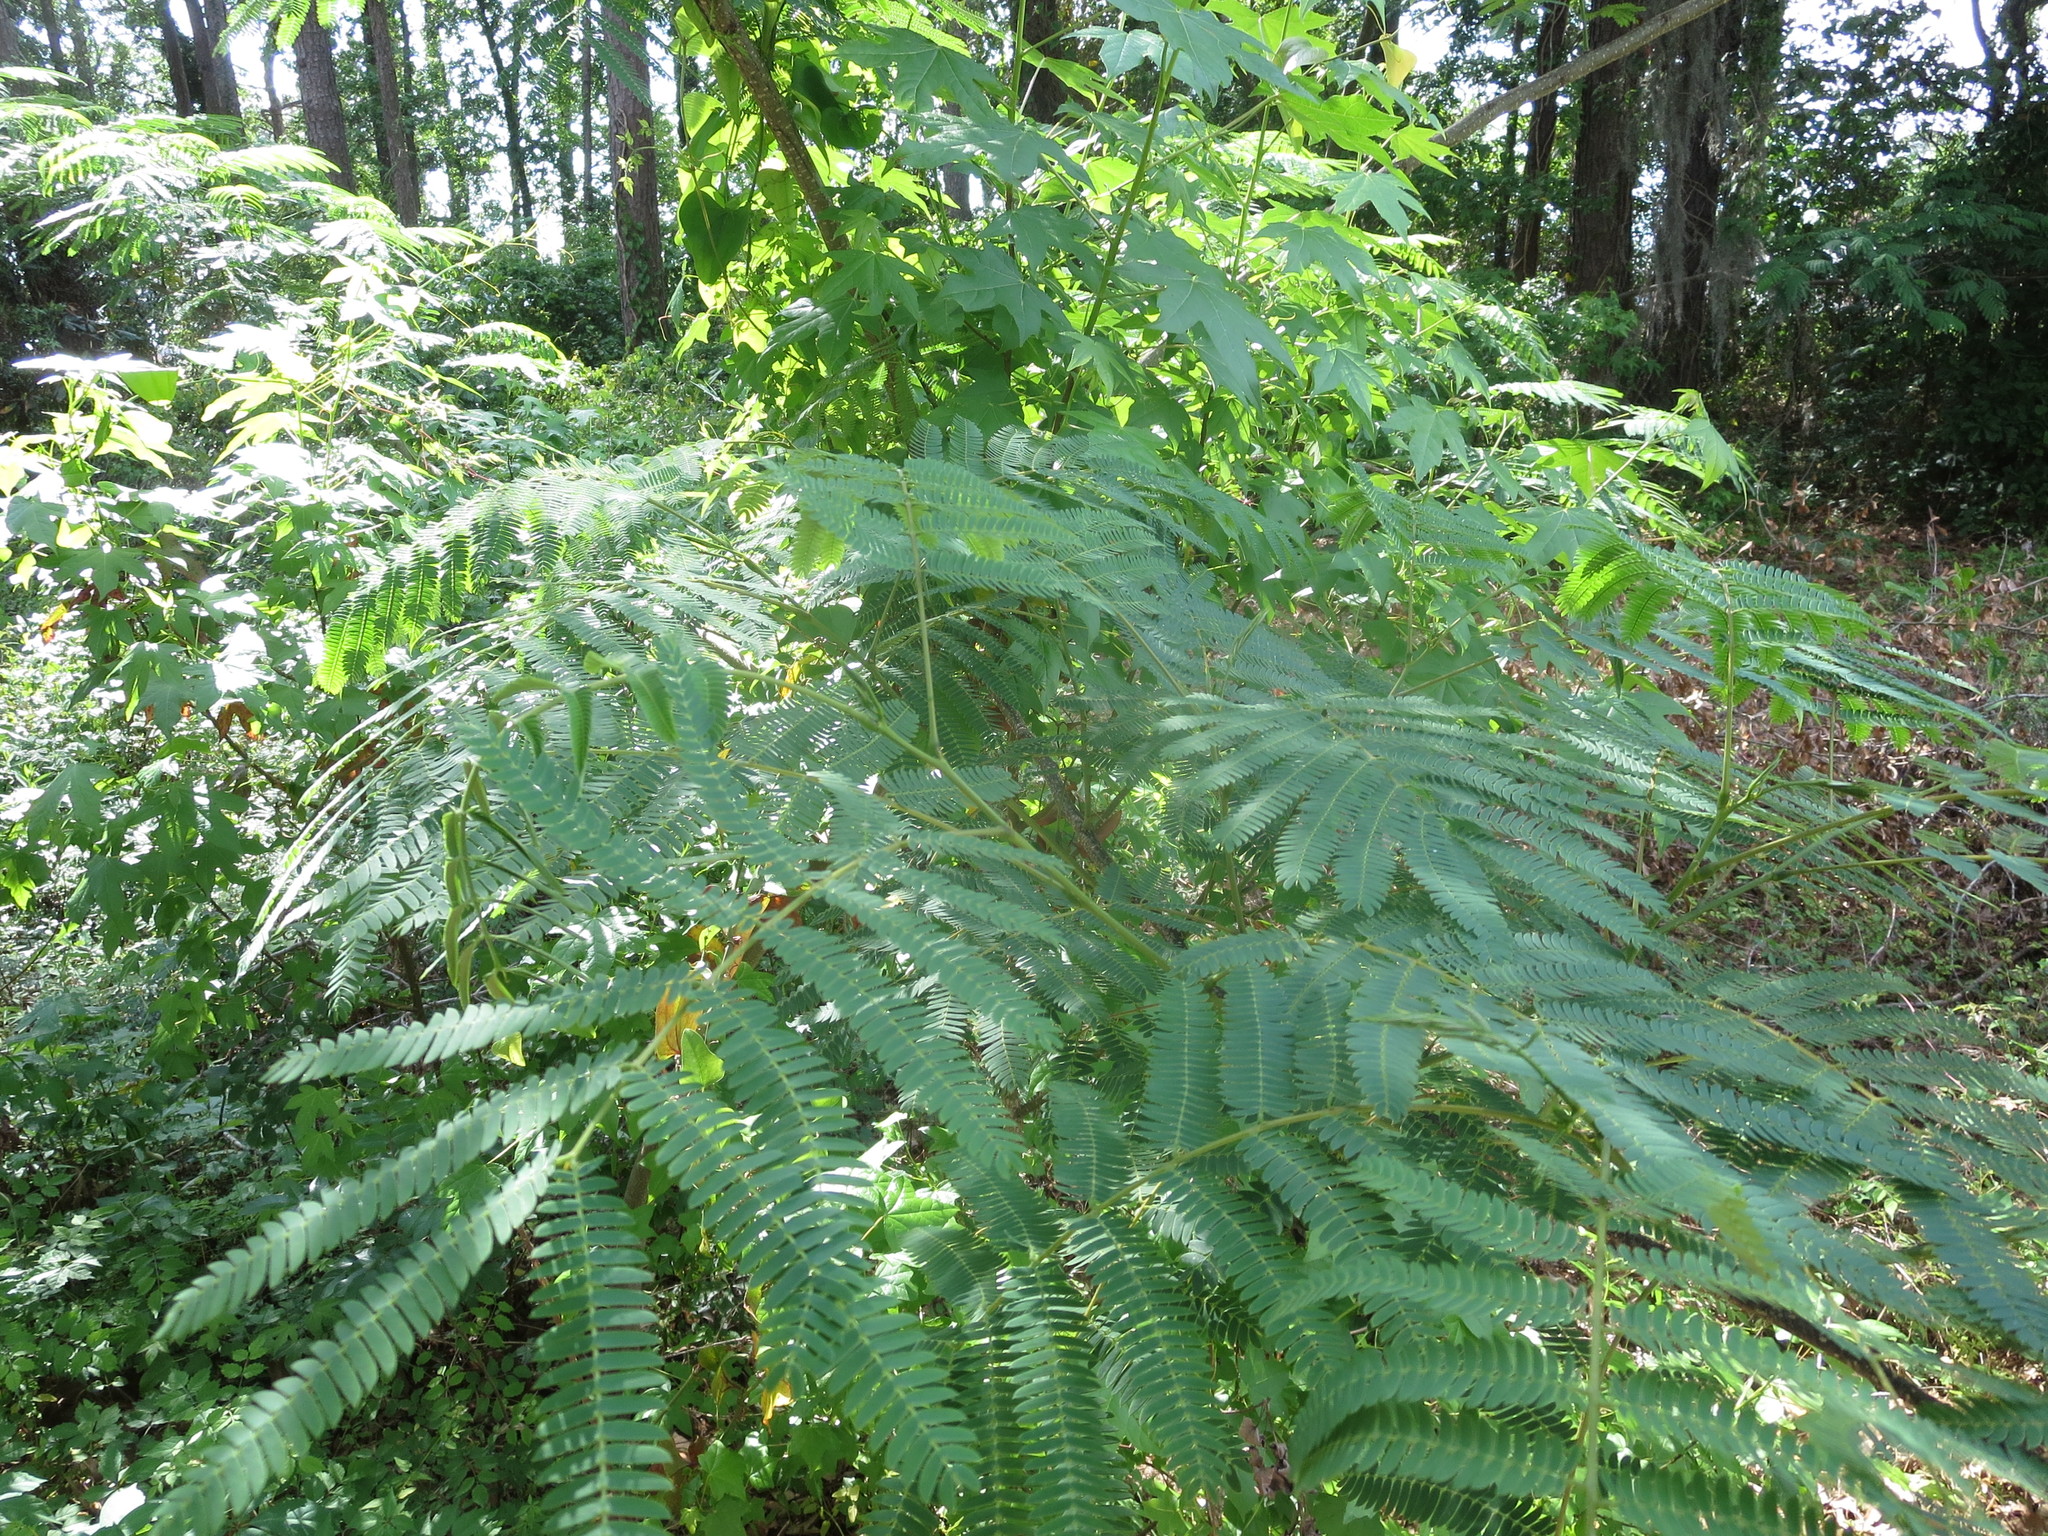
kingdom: Plantae
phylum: Tracheophyta
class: Magnoliopsida
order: Fabales
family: Fabaceae
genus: Albizia
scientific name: Albizia julibrissin
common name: Silktree
